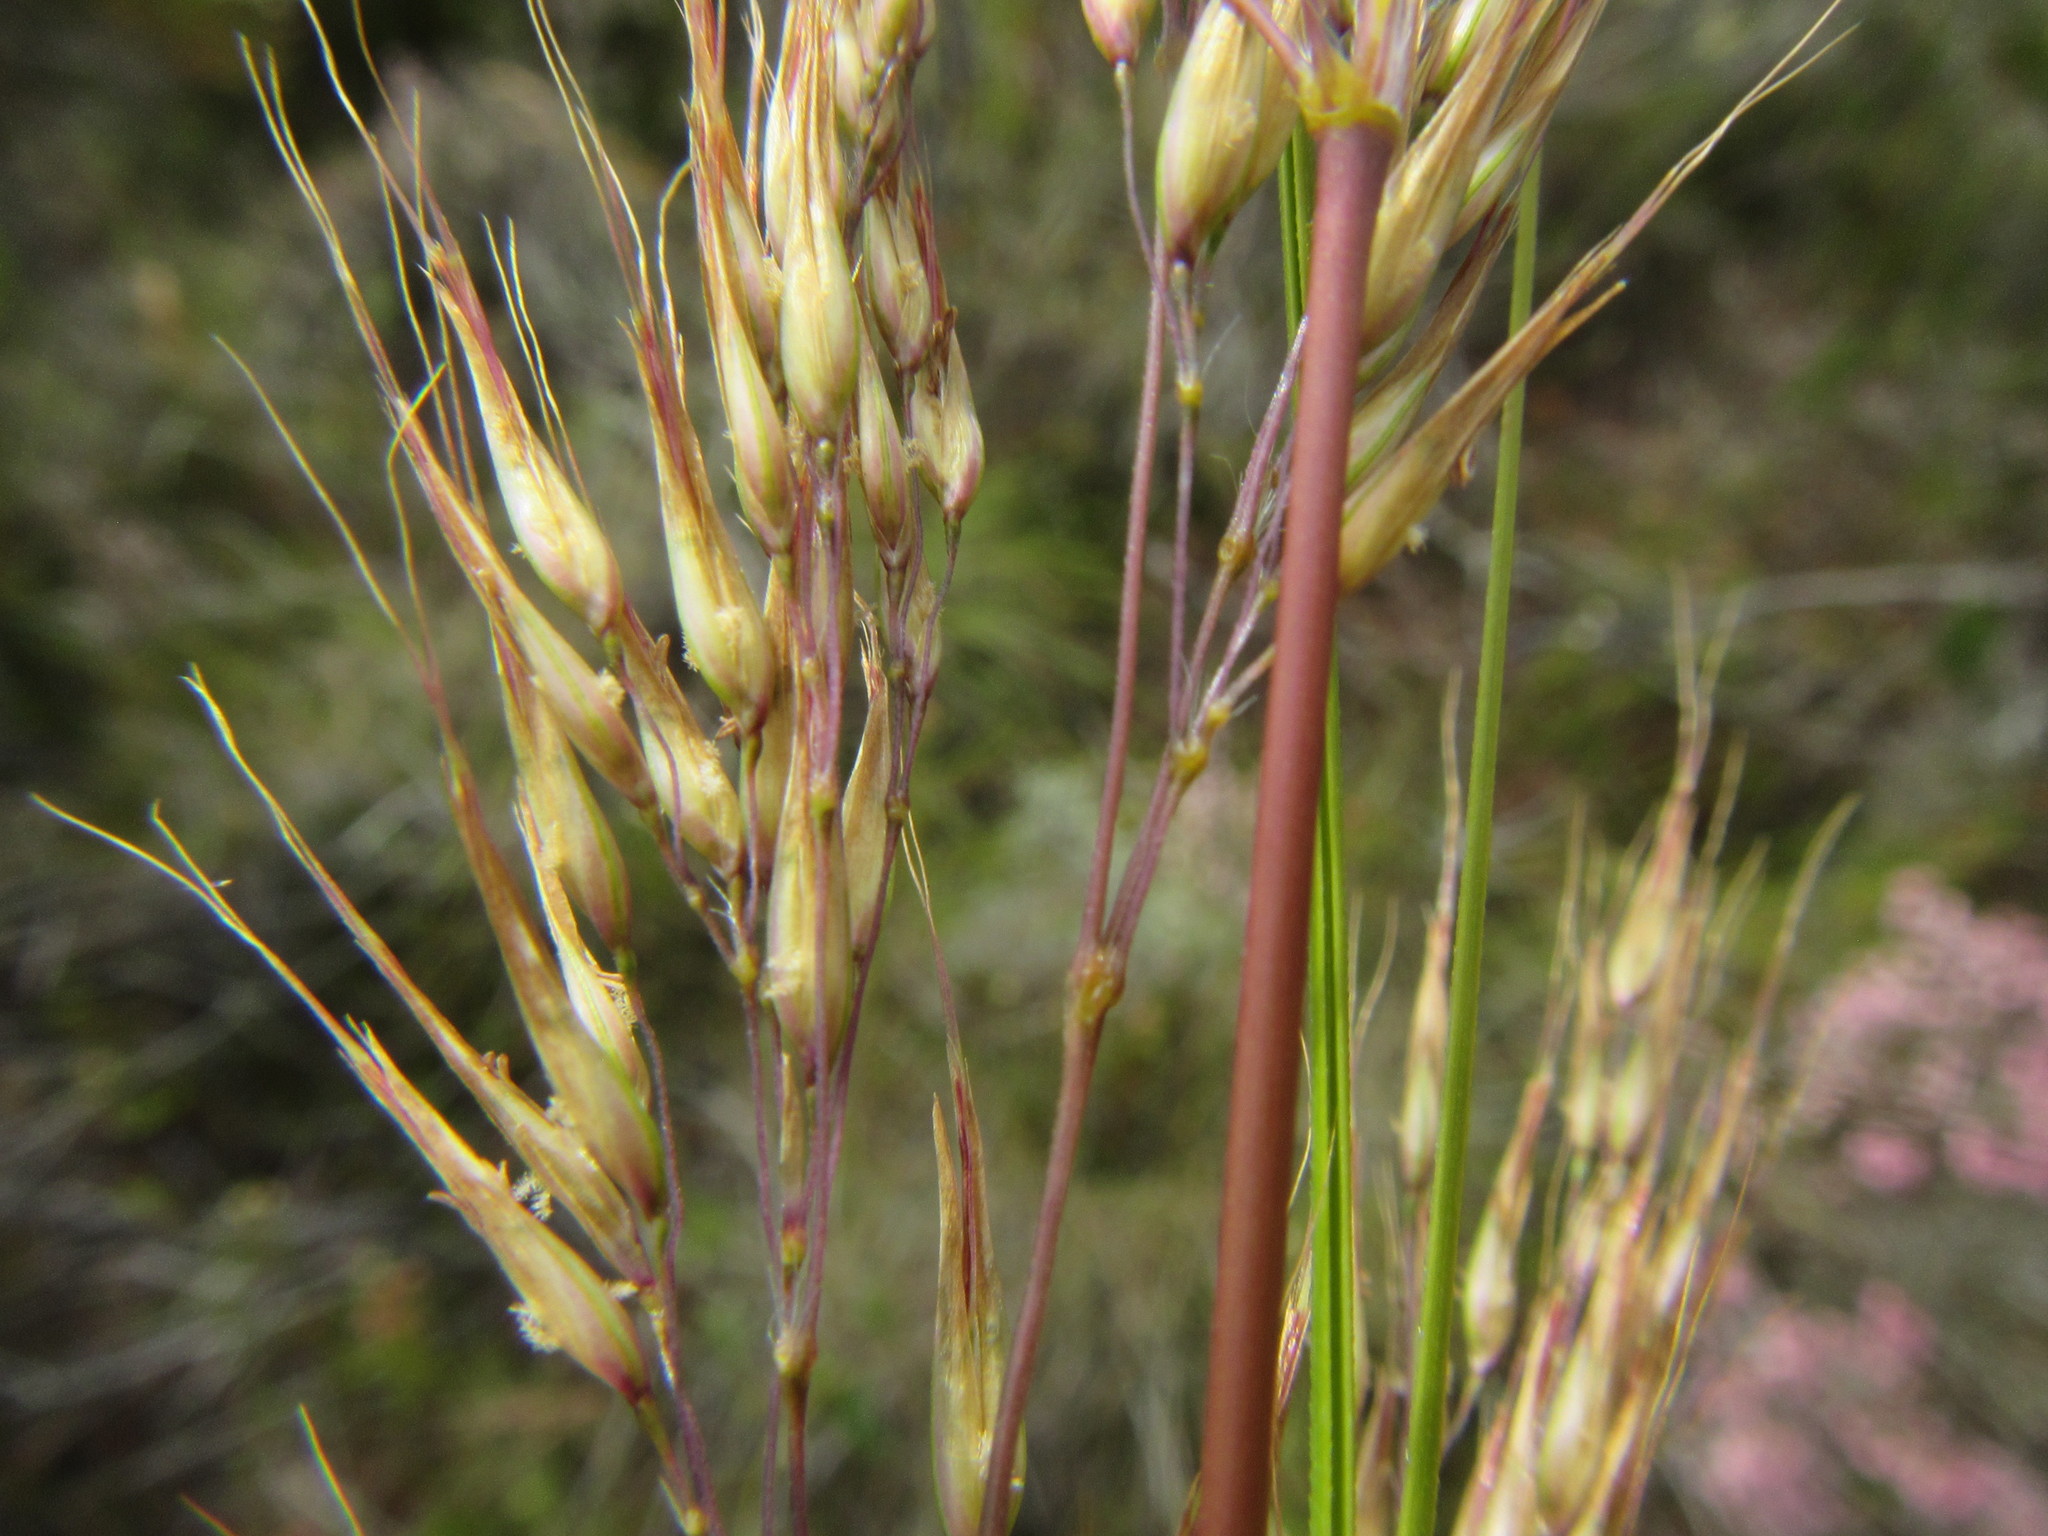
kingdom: Plantae
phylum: Tracheophyta
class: Liliopsida
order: Poales
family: Poaceae
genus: Pentameris
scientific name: Pentameris colorata
